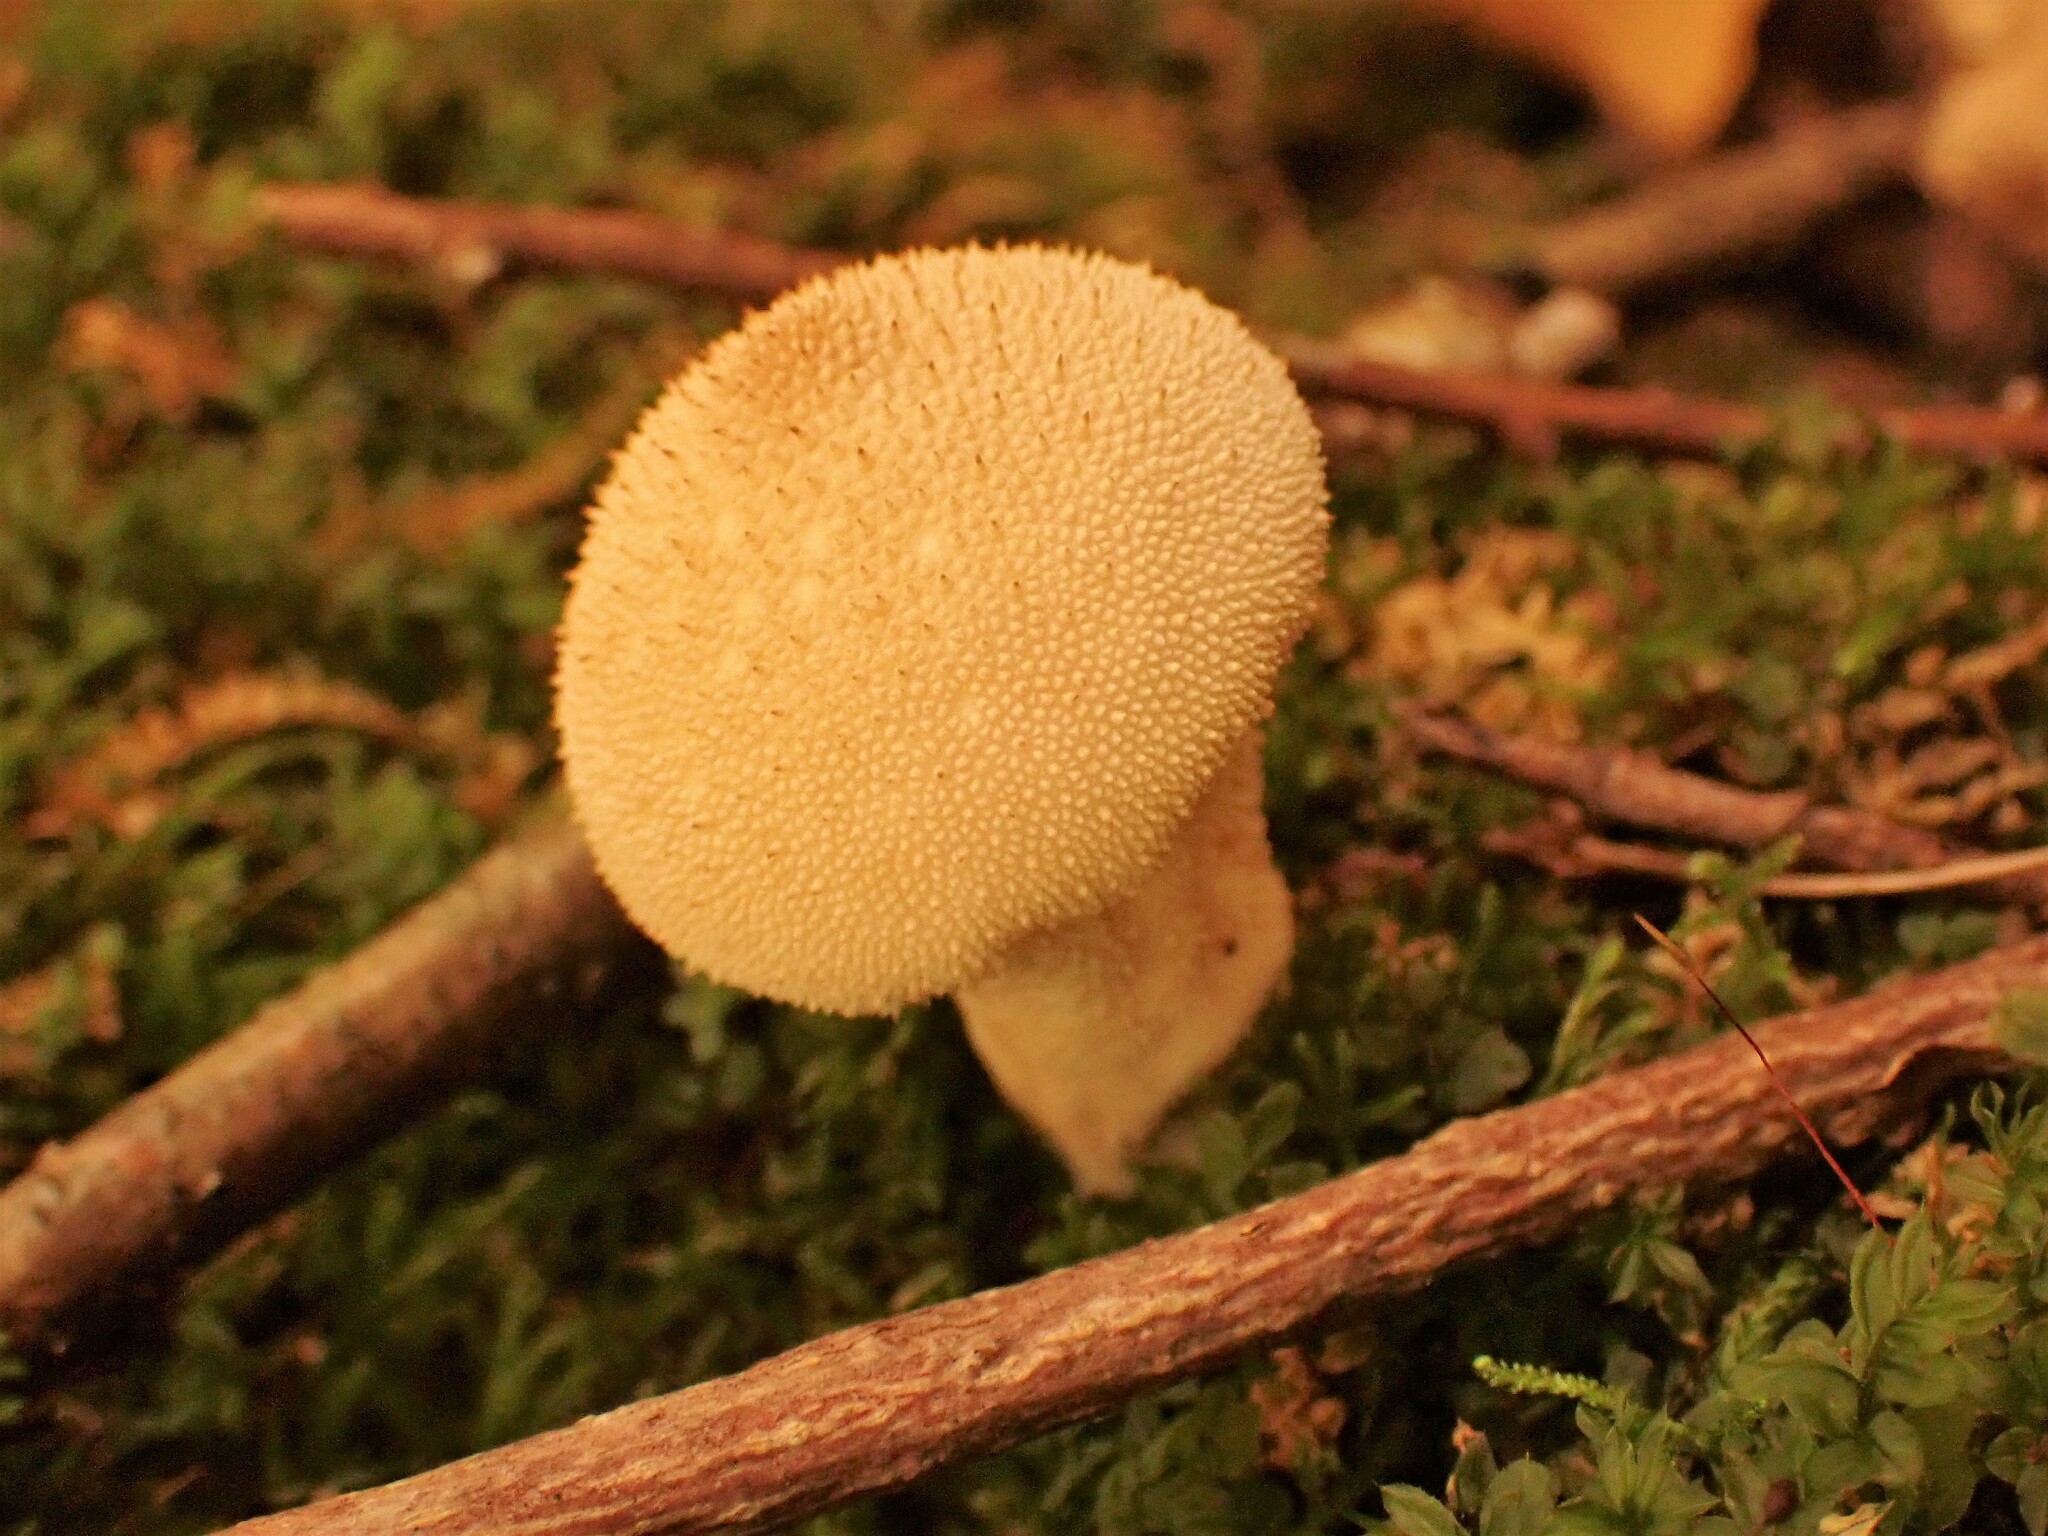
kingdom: Fungi
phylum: Basidiomycota
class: Agaricomycetes
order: Agaricales
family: Lycoperdaceae
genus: Lycoperdon
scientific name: Lycoperdon perlatum
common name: Common puffball
